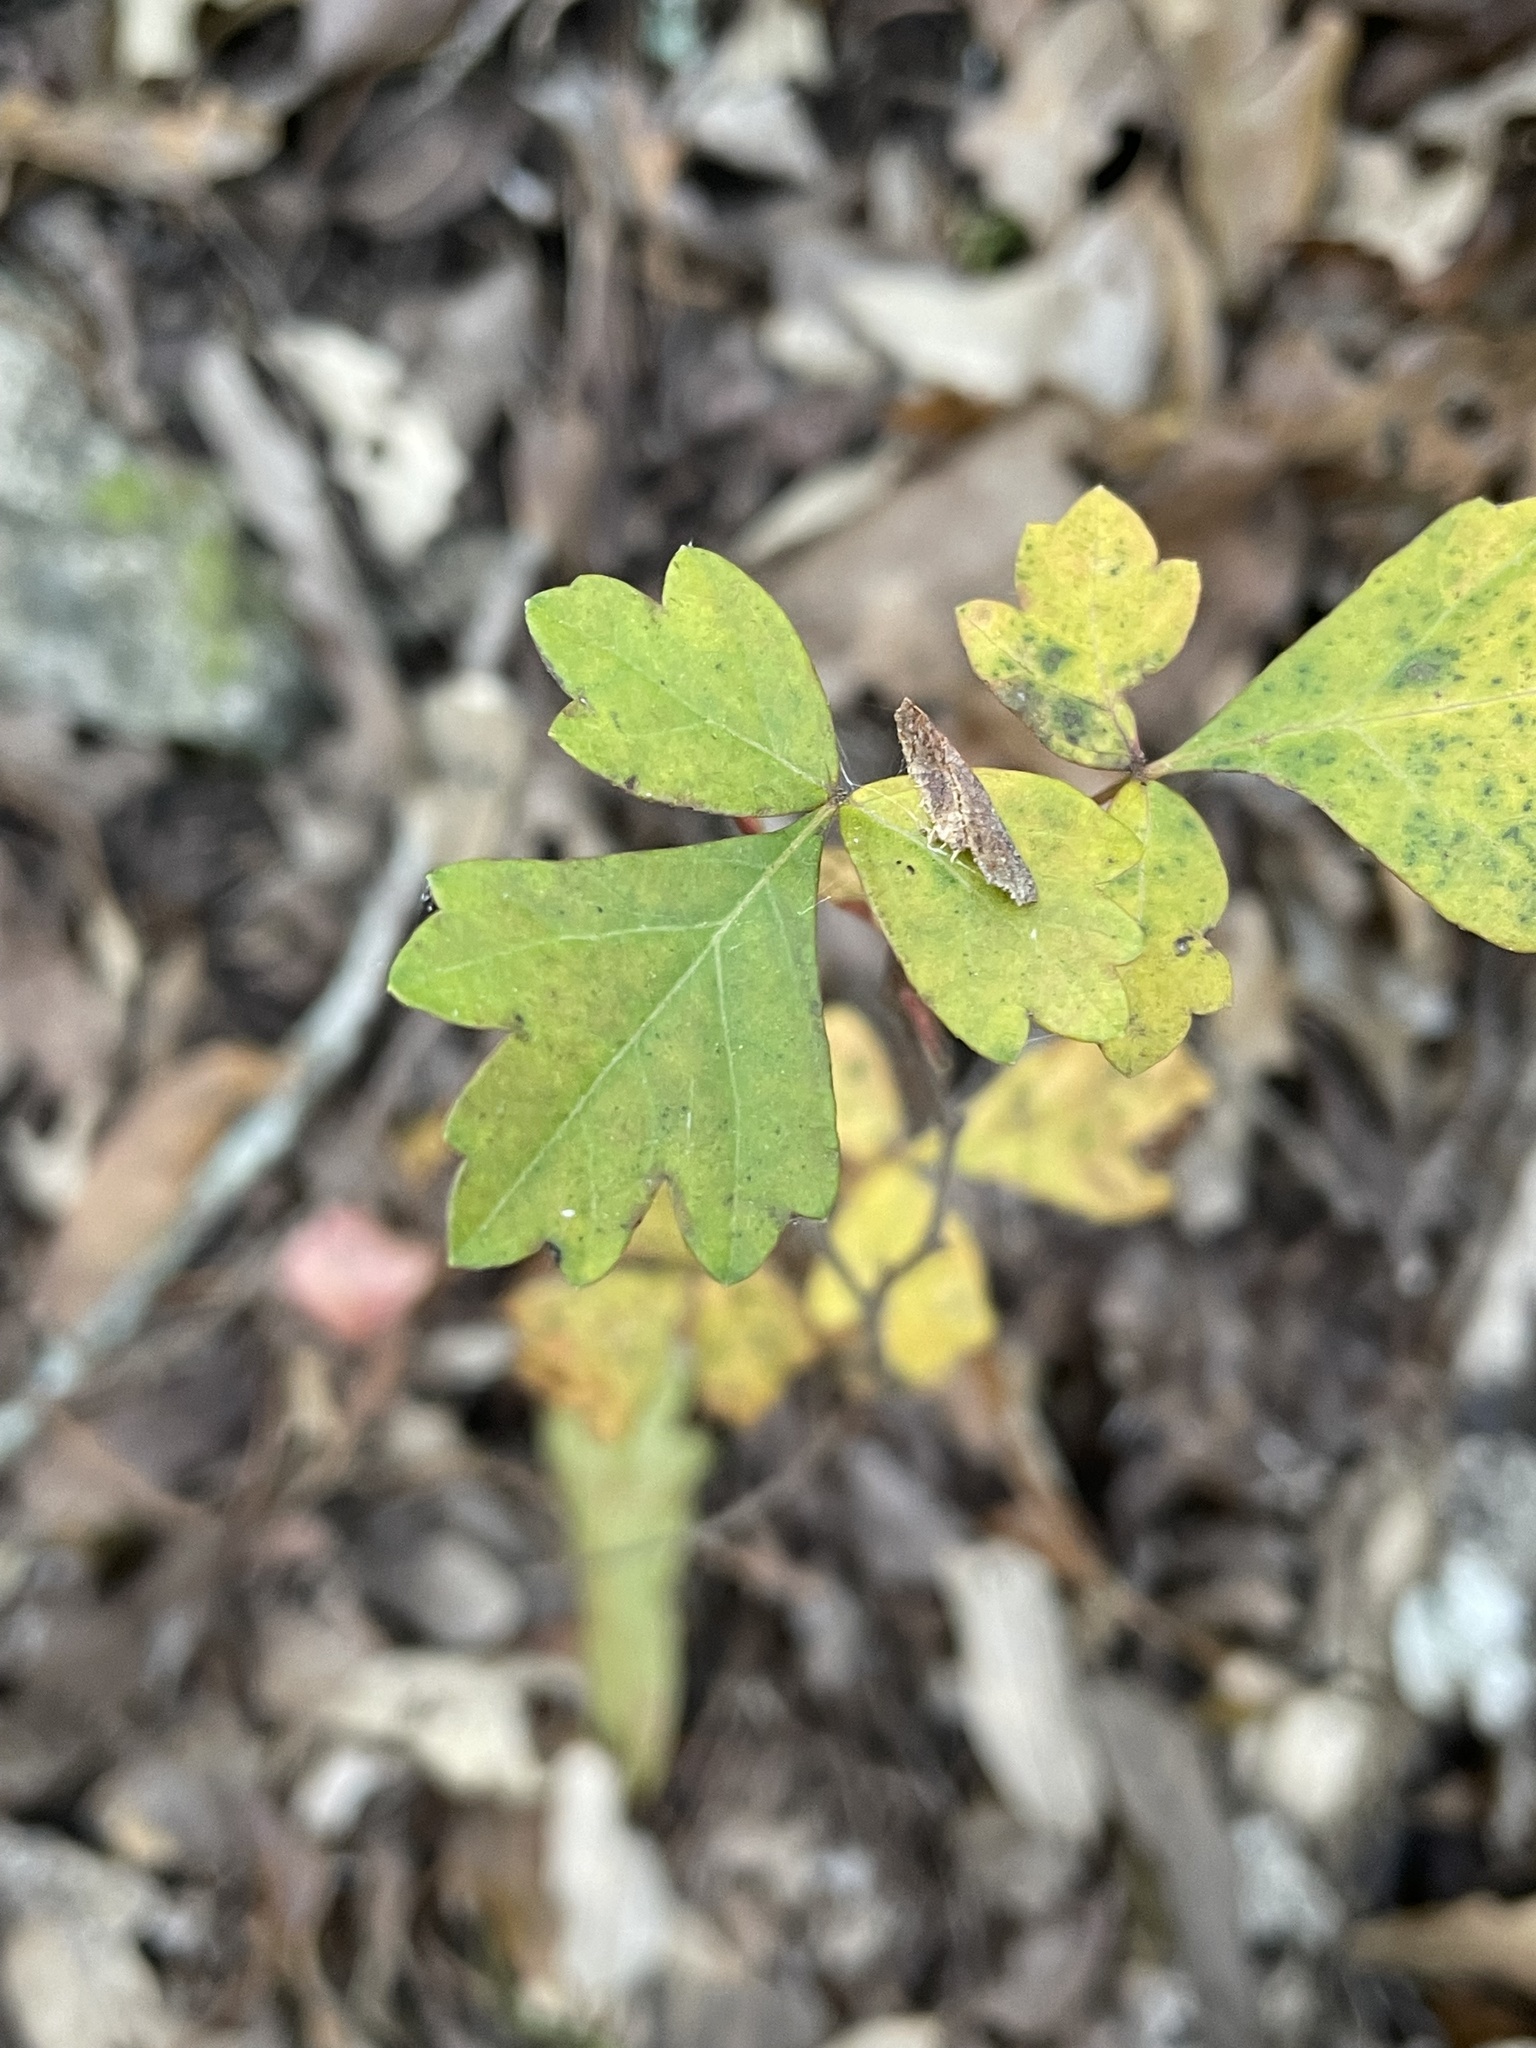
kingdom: Plantae
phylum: Tracheophyta
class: Magnoliopsida
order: Sapindales
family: Anacardiaceae
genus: Rhus
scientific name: Rhus aromatica
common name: Aromatic sumac
